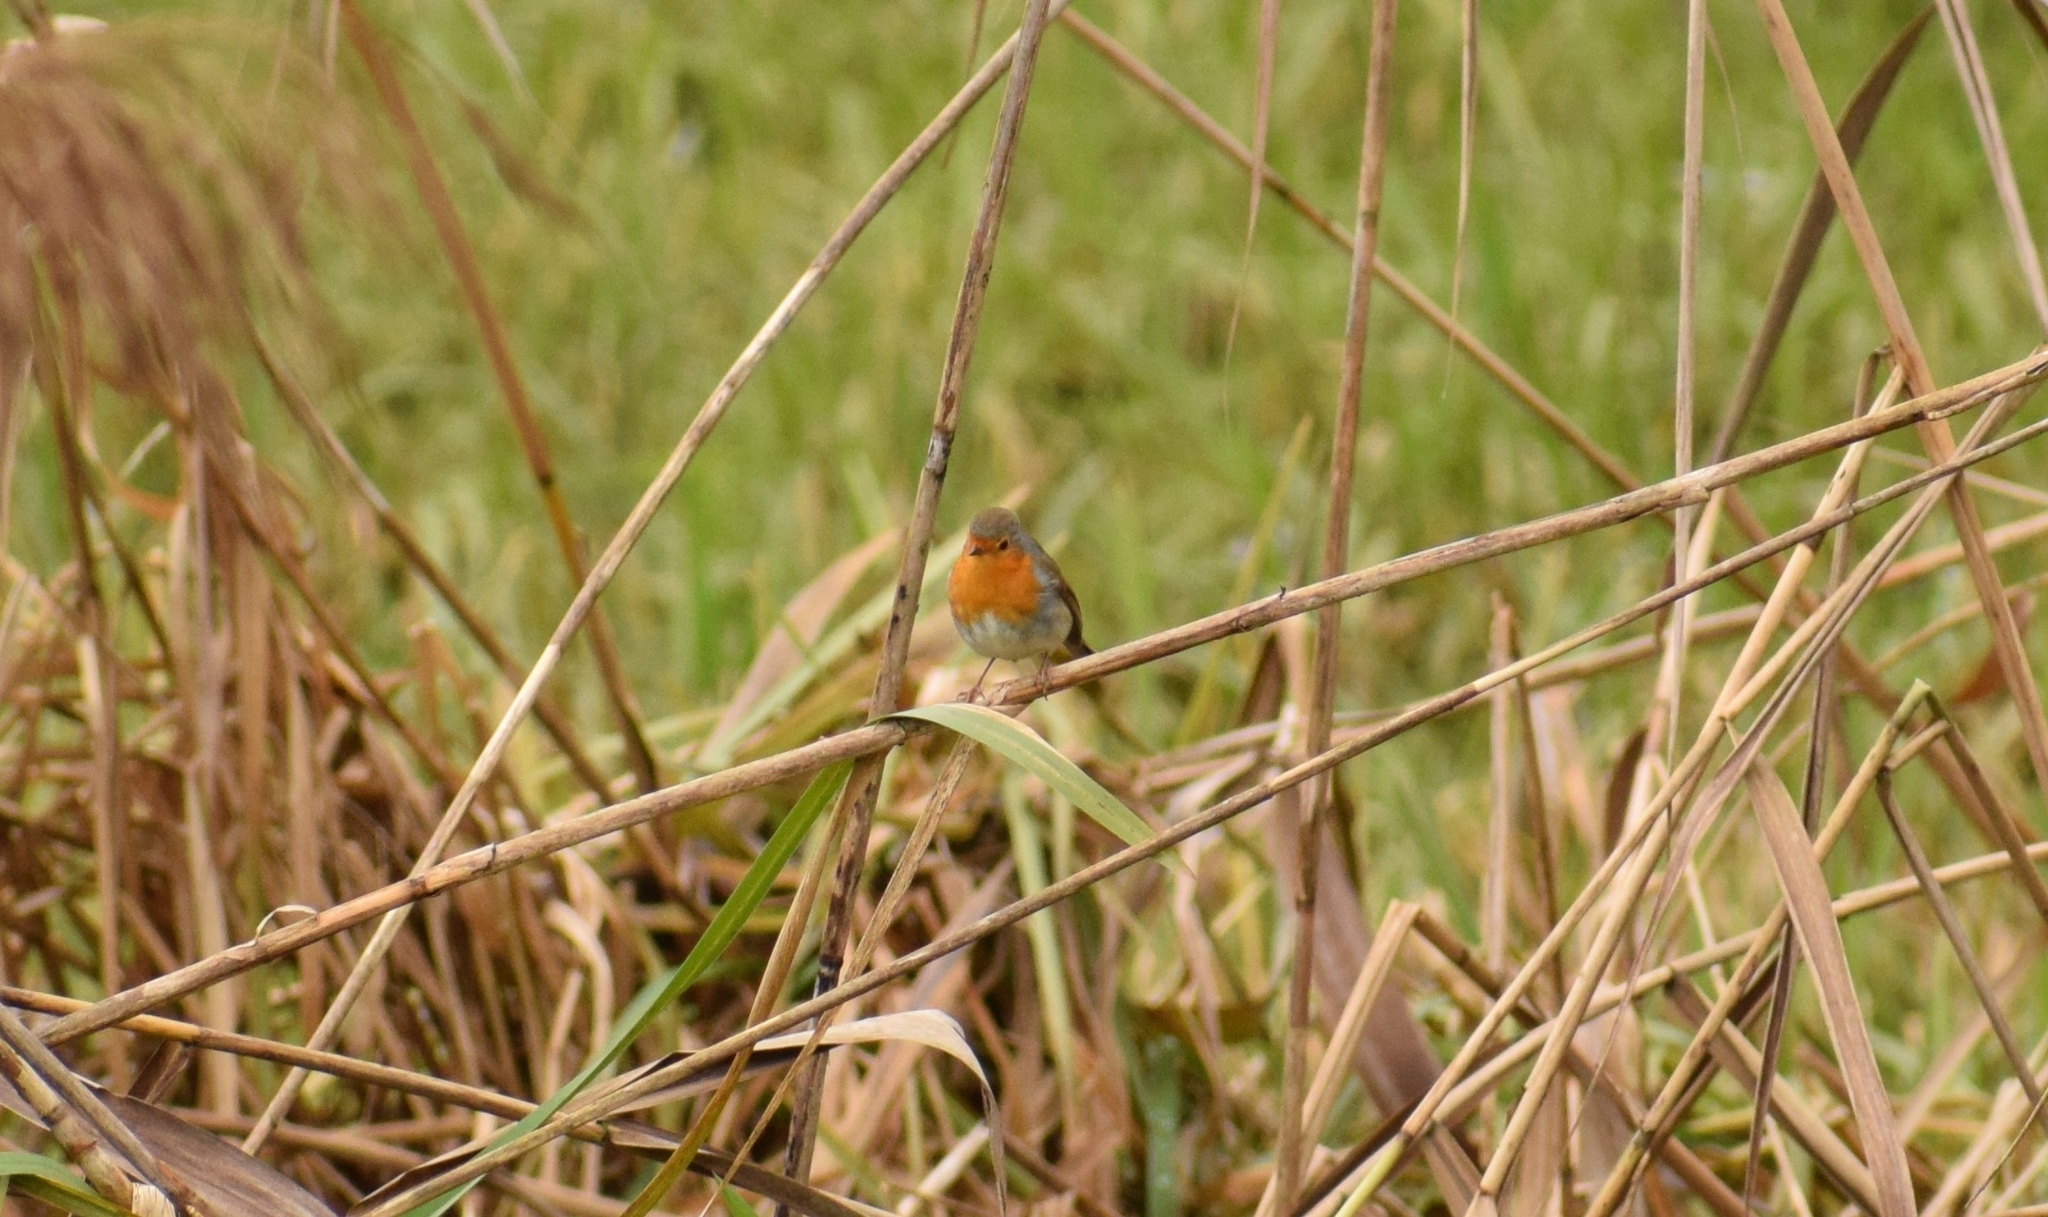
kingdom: Animalia
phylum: Chordata
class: Aves
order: Passeriformes
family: Muscicapidae
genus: Erithacus
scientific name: Erithacus rubecula
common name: European robin
